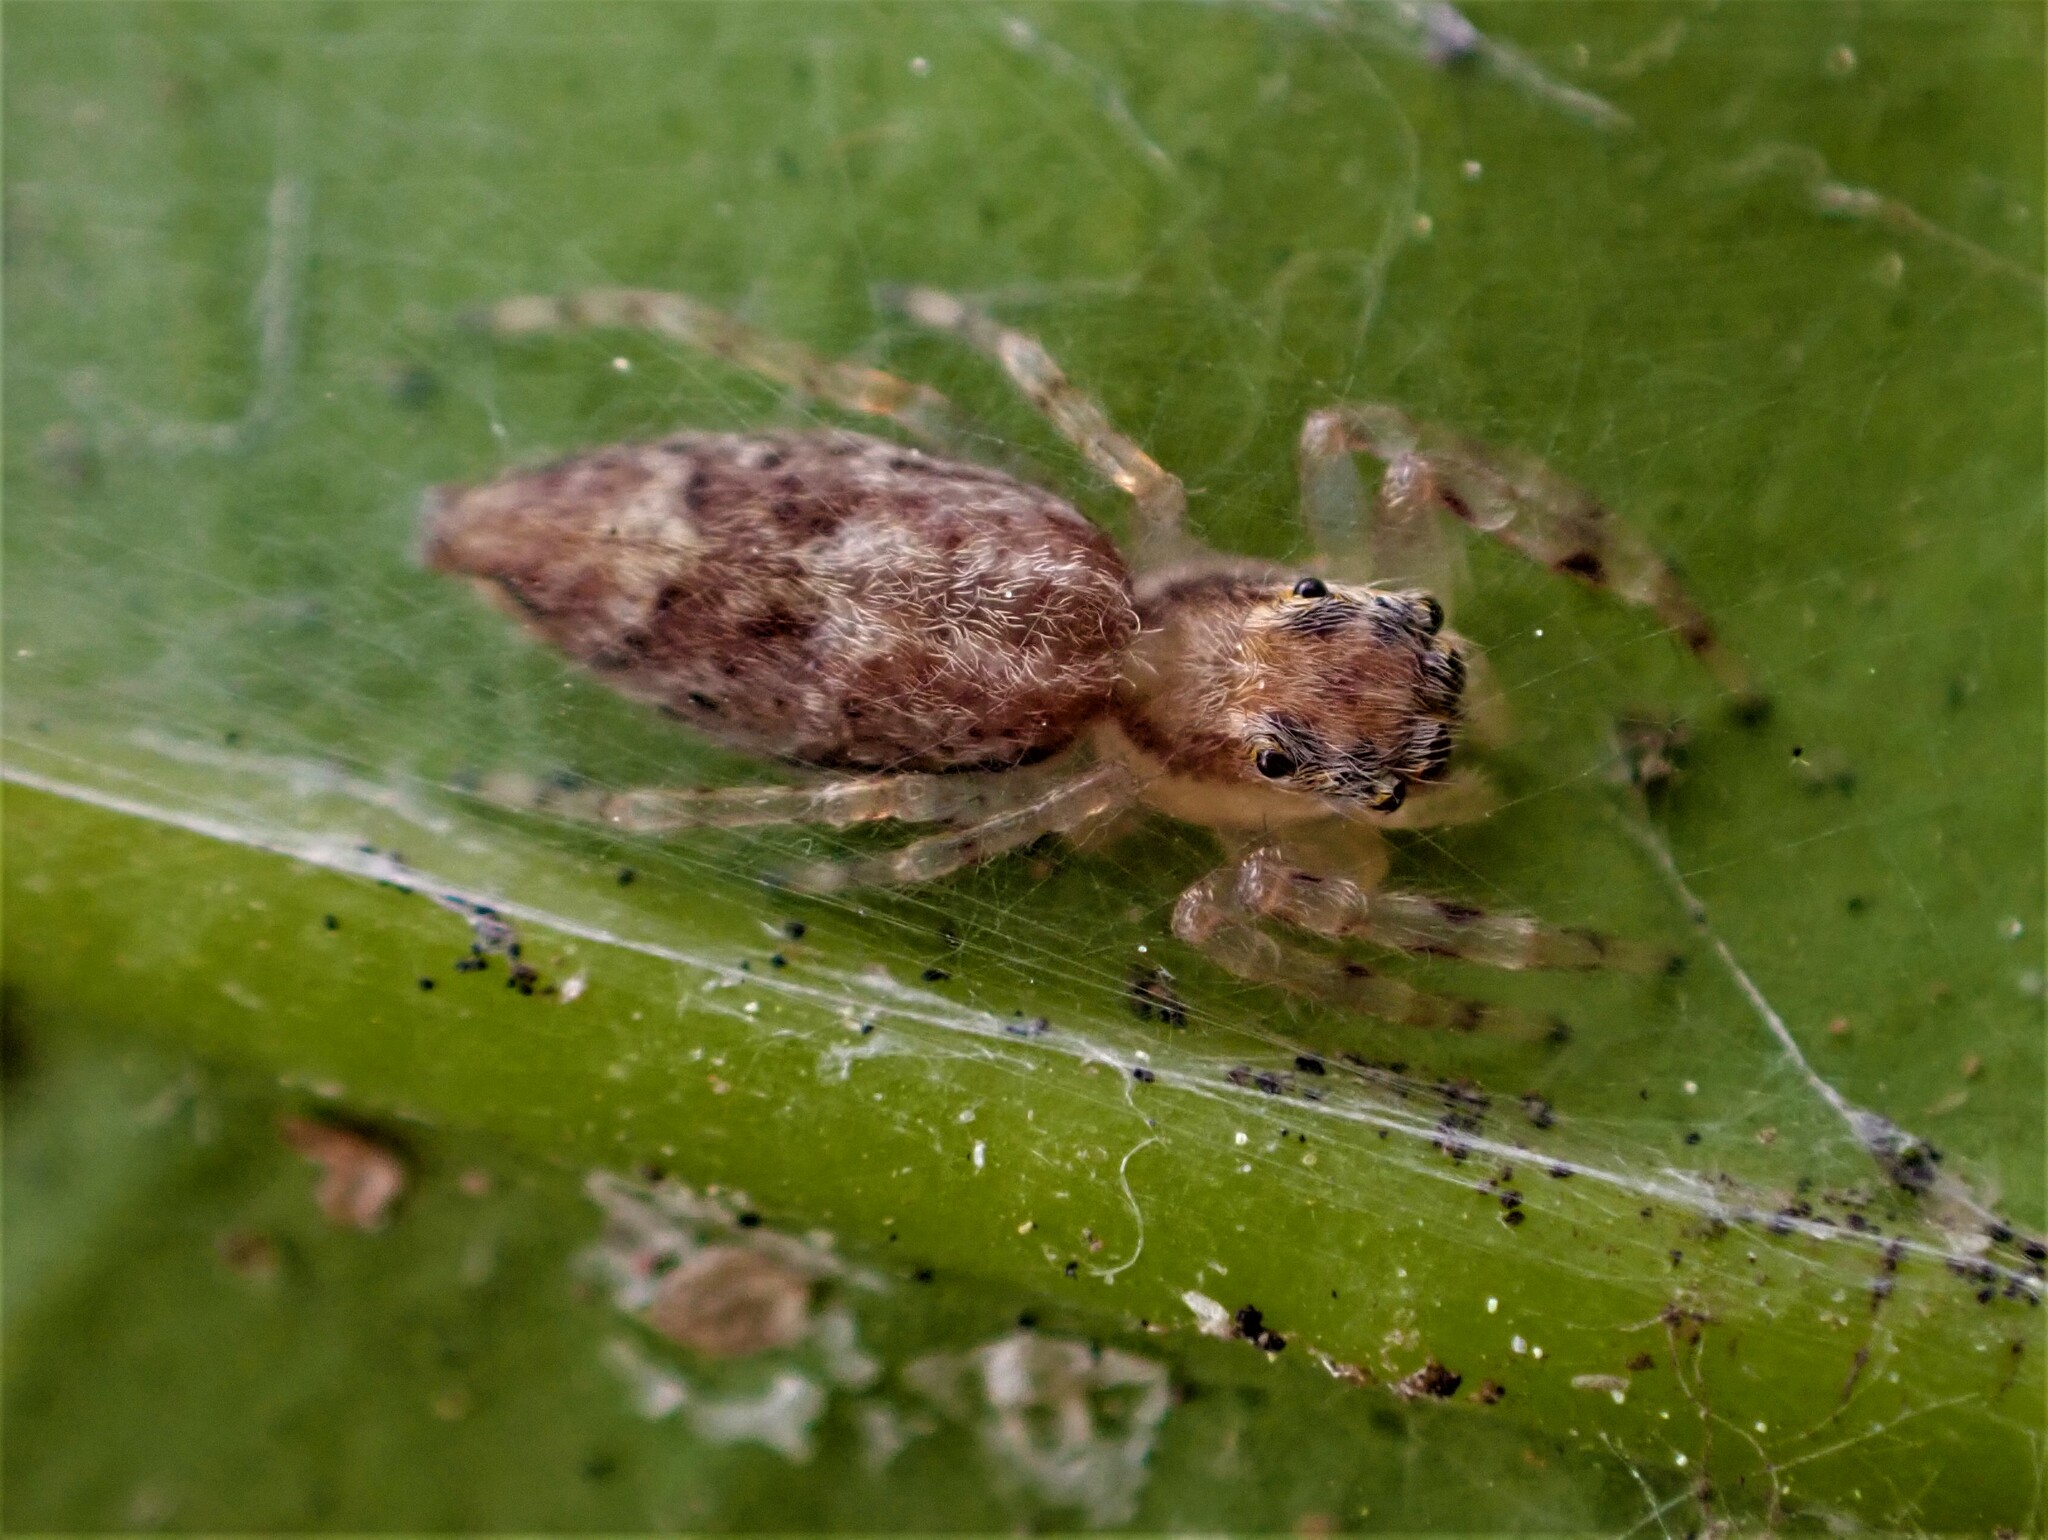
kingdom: Animalia
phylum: Arthropoda
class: Arachnida
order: Araneae
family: Salticidae
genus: Helpis
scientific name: Helpis minitabunda
